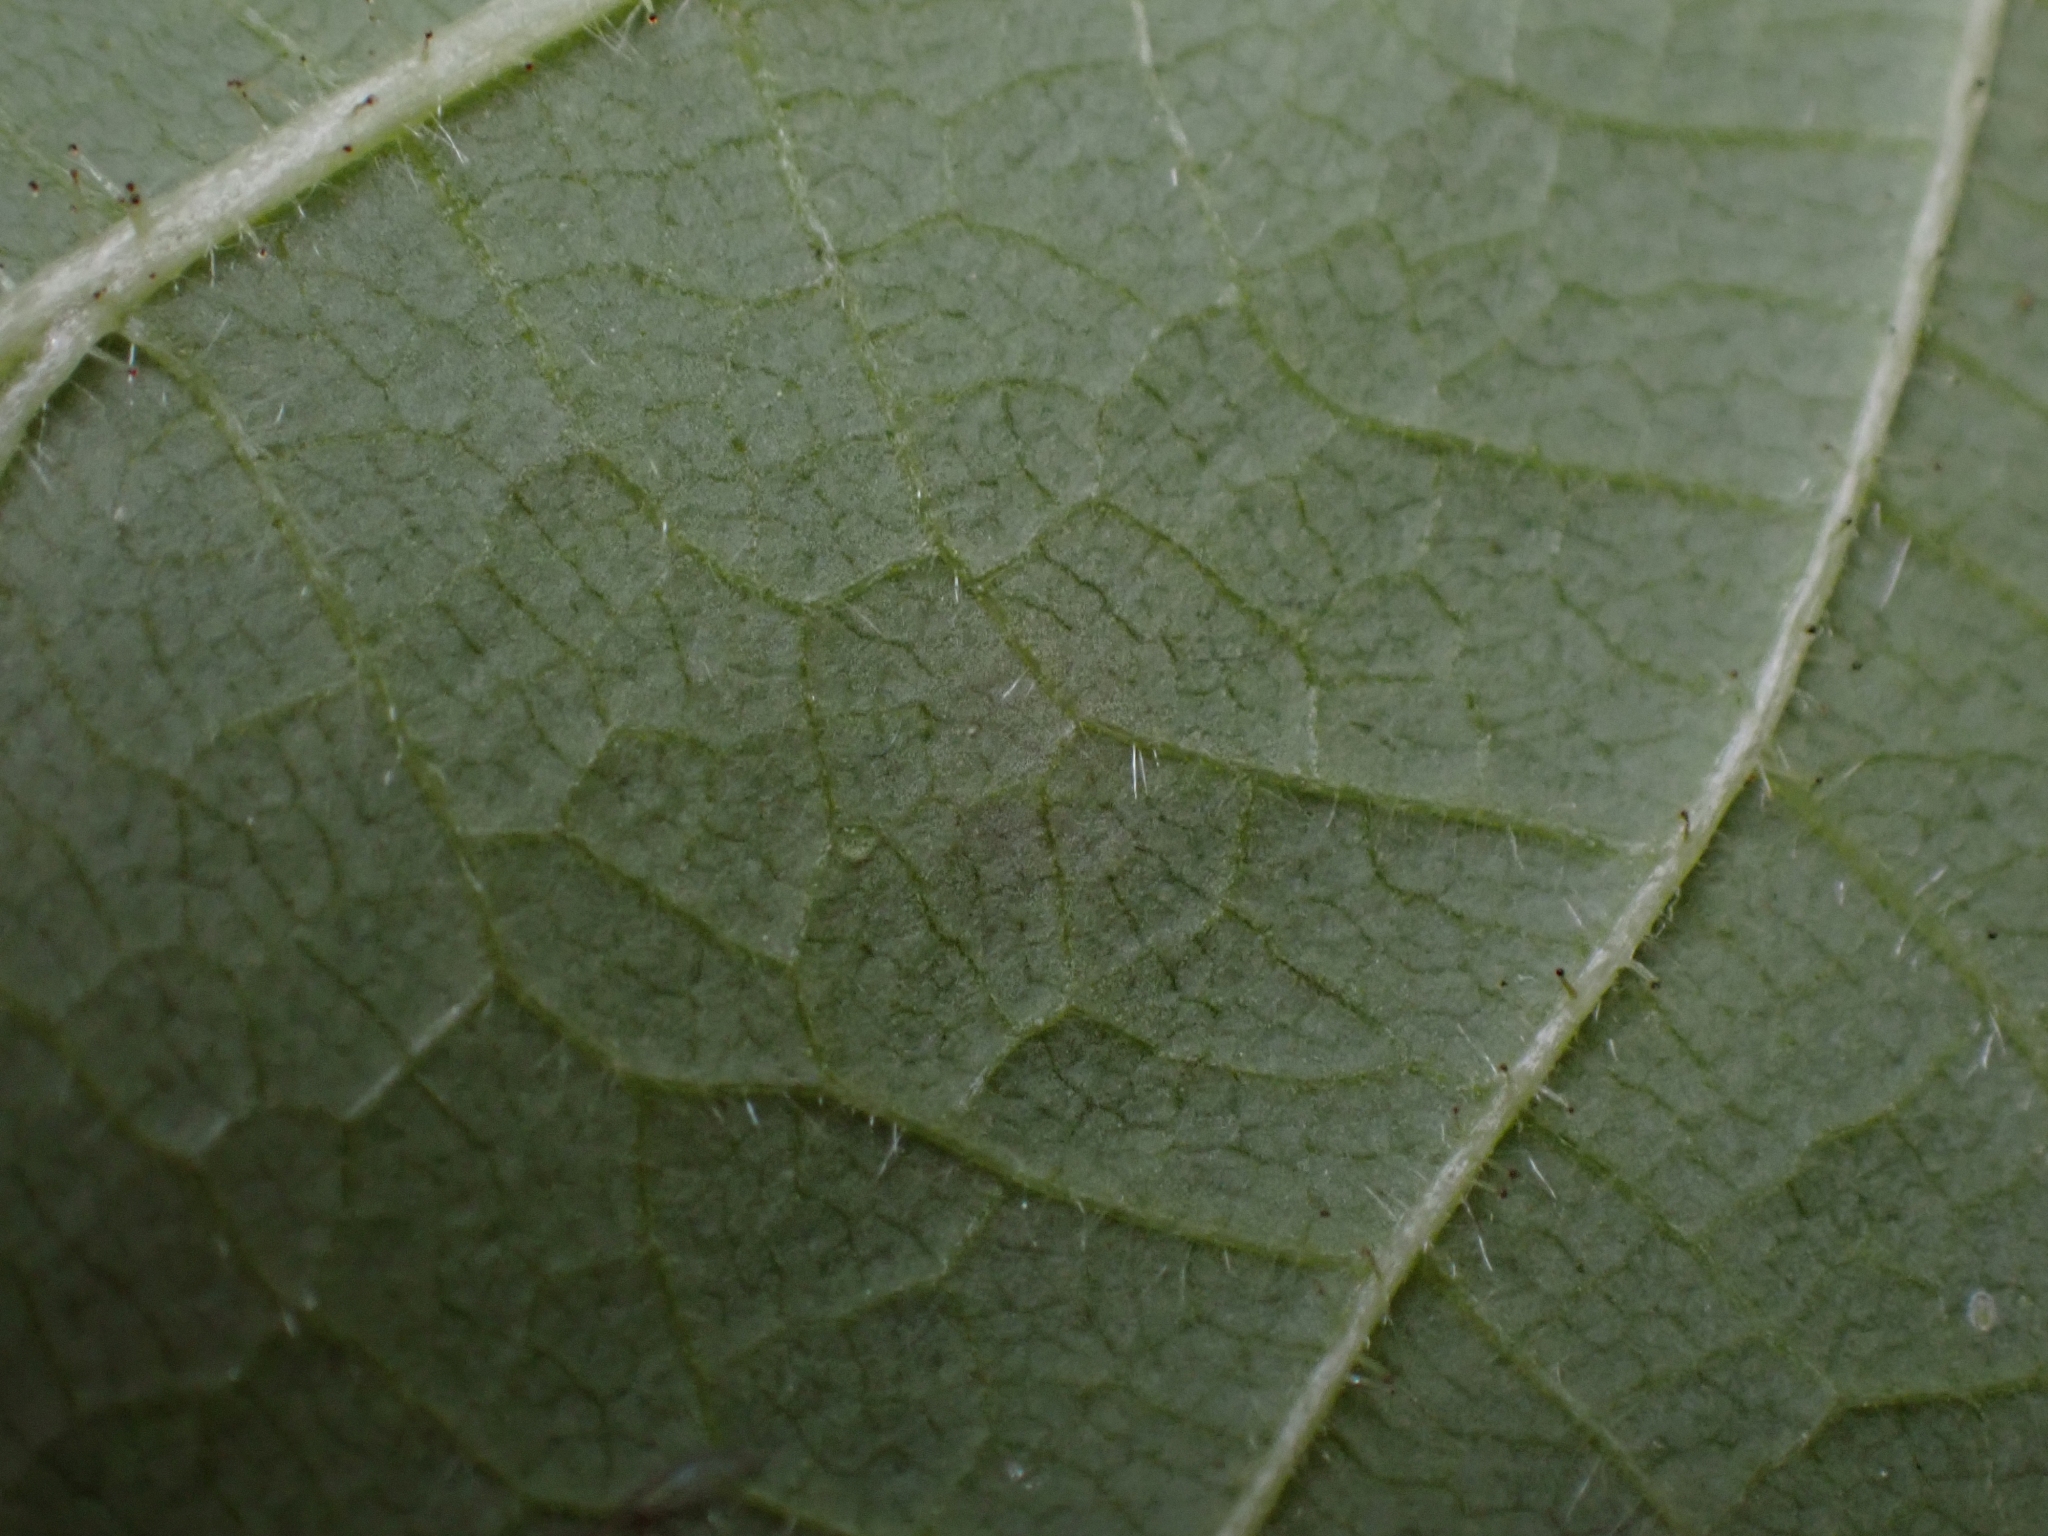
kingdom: Plantae
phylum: Tracheophyta
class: Magnoliopsida
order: Rosales
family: Rosaceae
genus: Rubus
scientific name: Rubus parviflorus
